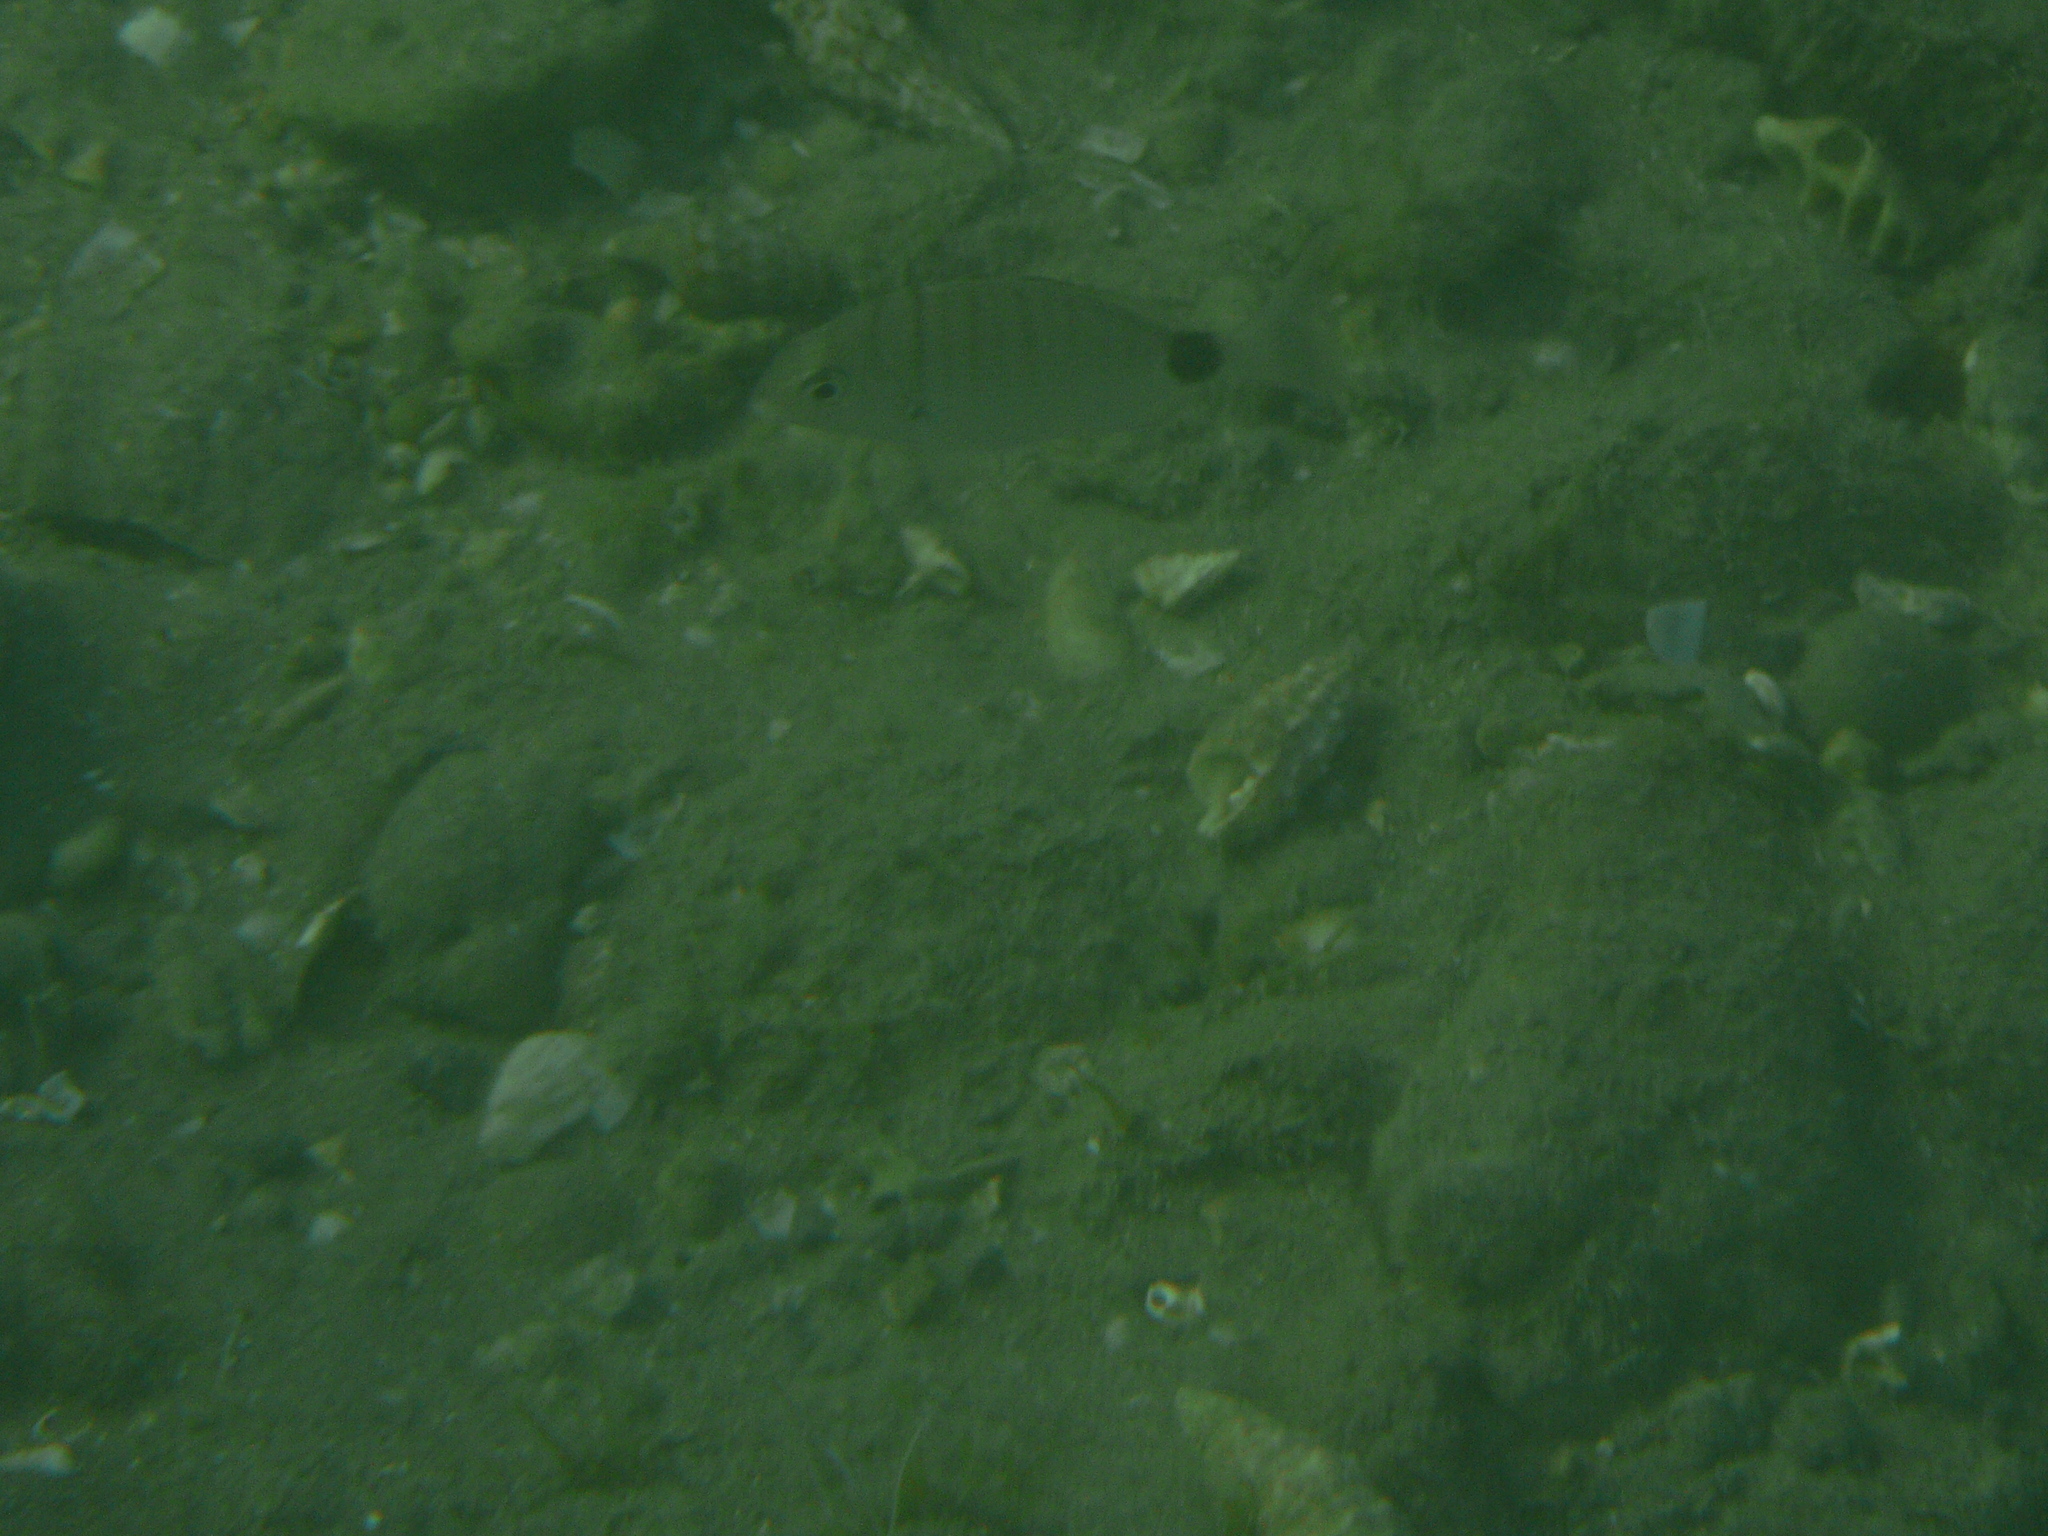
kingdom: Animalia
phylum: Chordata
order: Perciformes
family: Sparidae
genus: Diplodus
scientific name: Diplodus sargus
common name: White seabream
